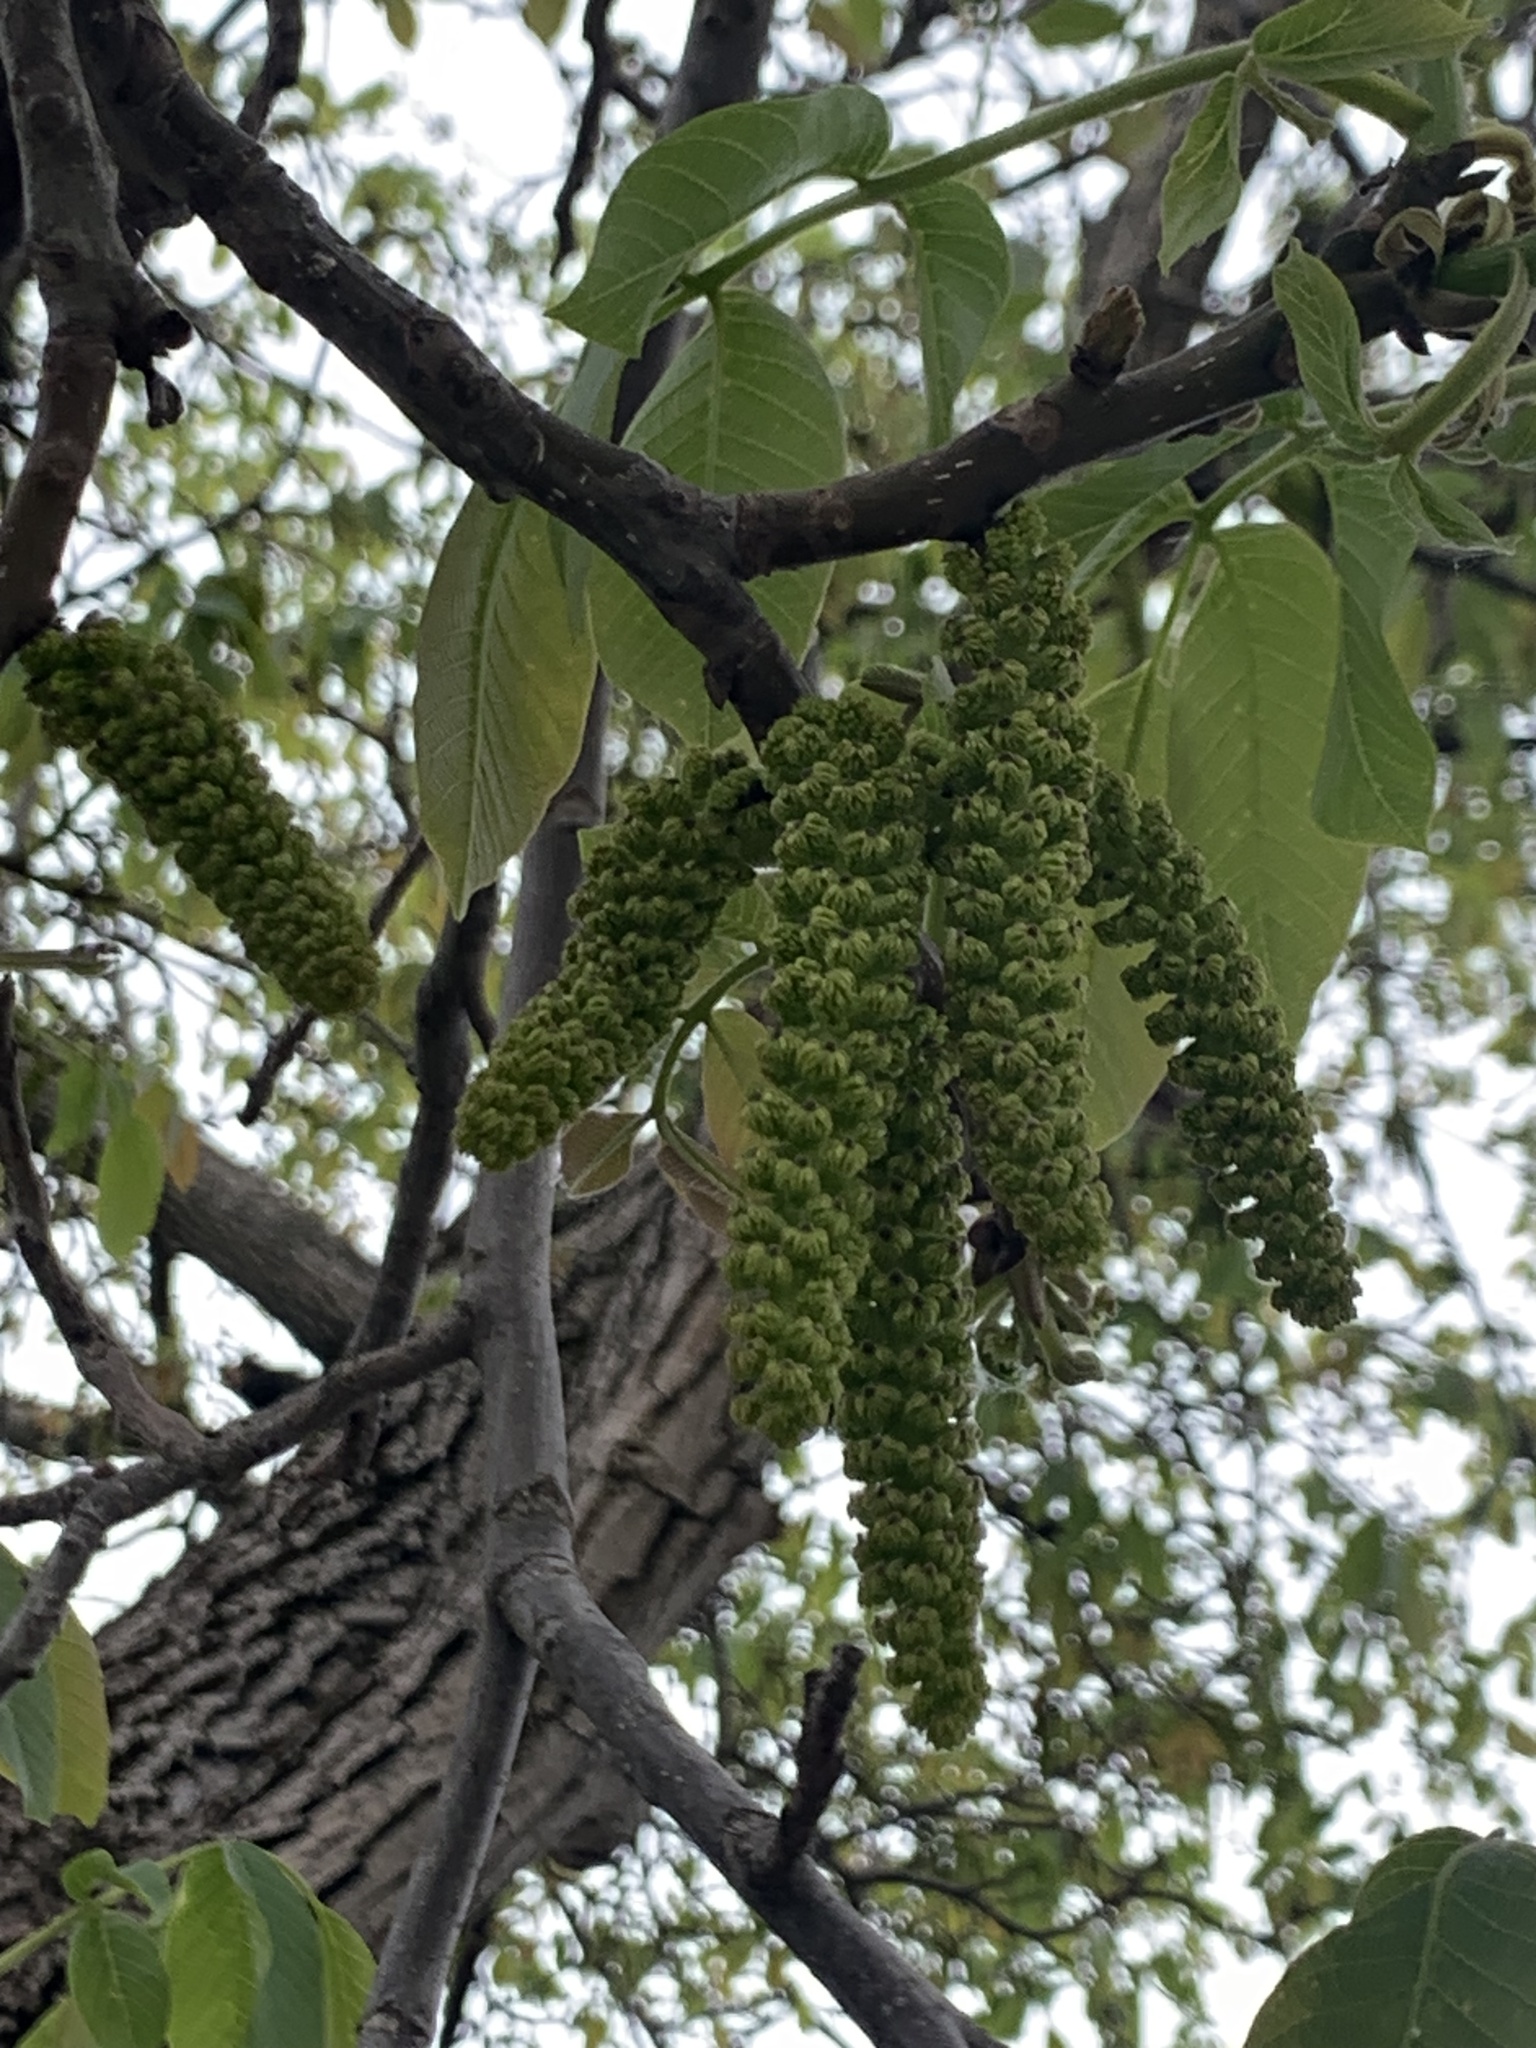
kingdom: Plantae
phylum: Tracheophyta
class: Magnoliopsida
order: Fagales
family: Juglandaceae
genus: Juglans
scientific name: Juglans regia
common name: Walnut
